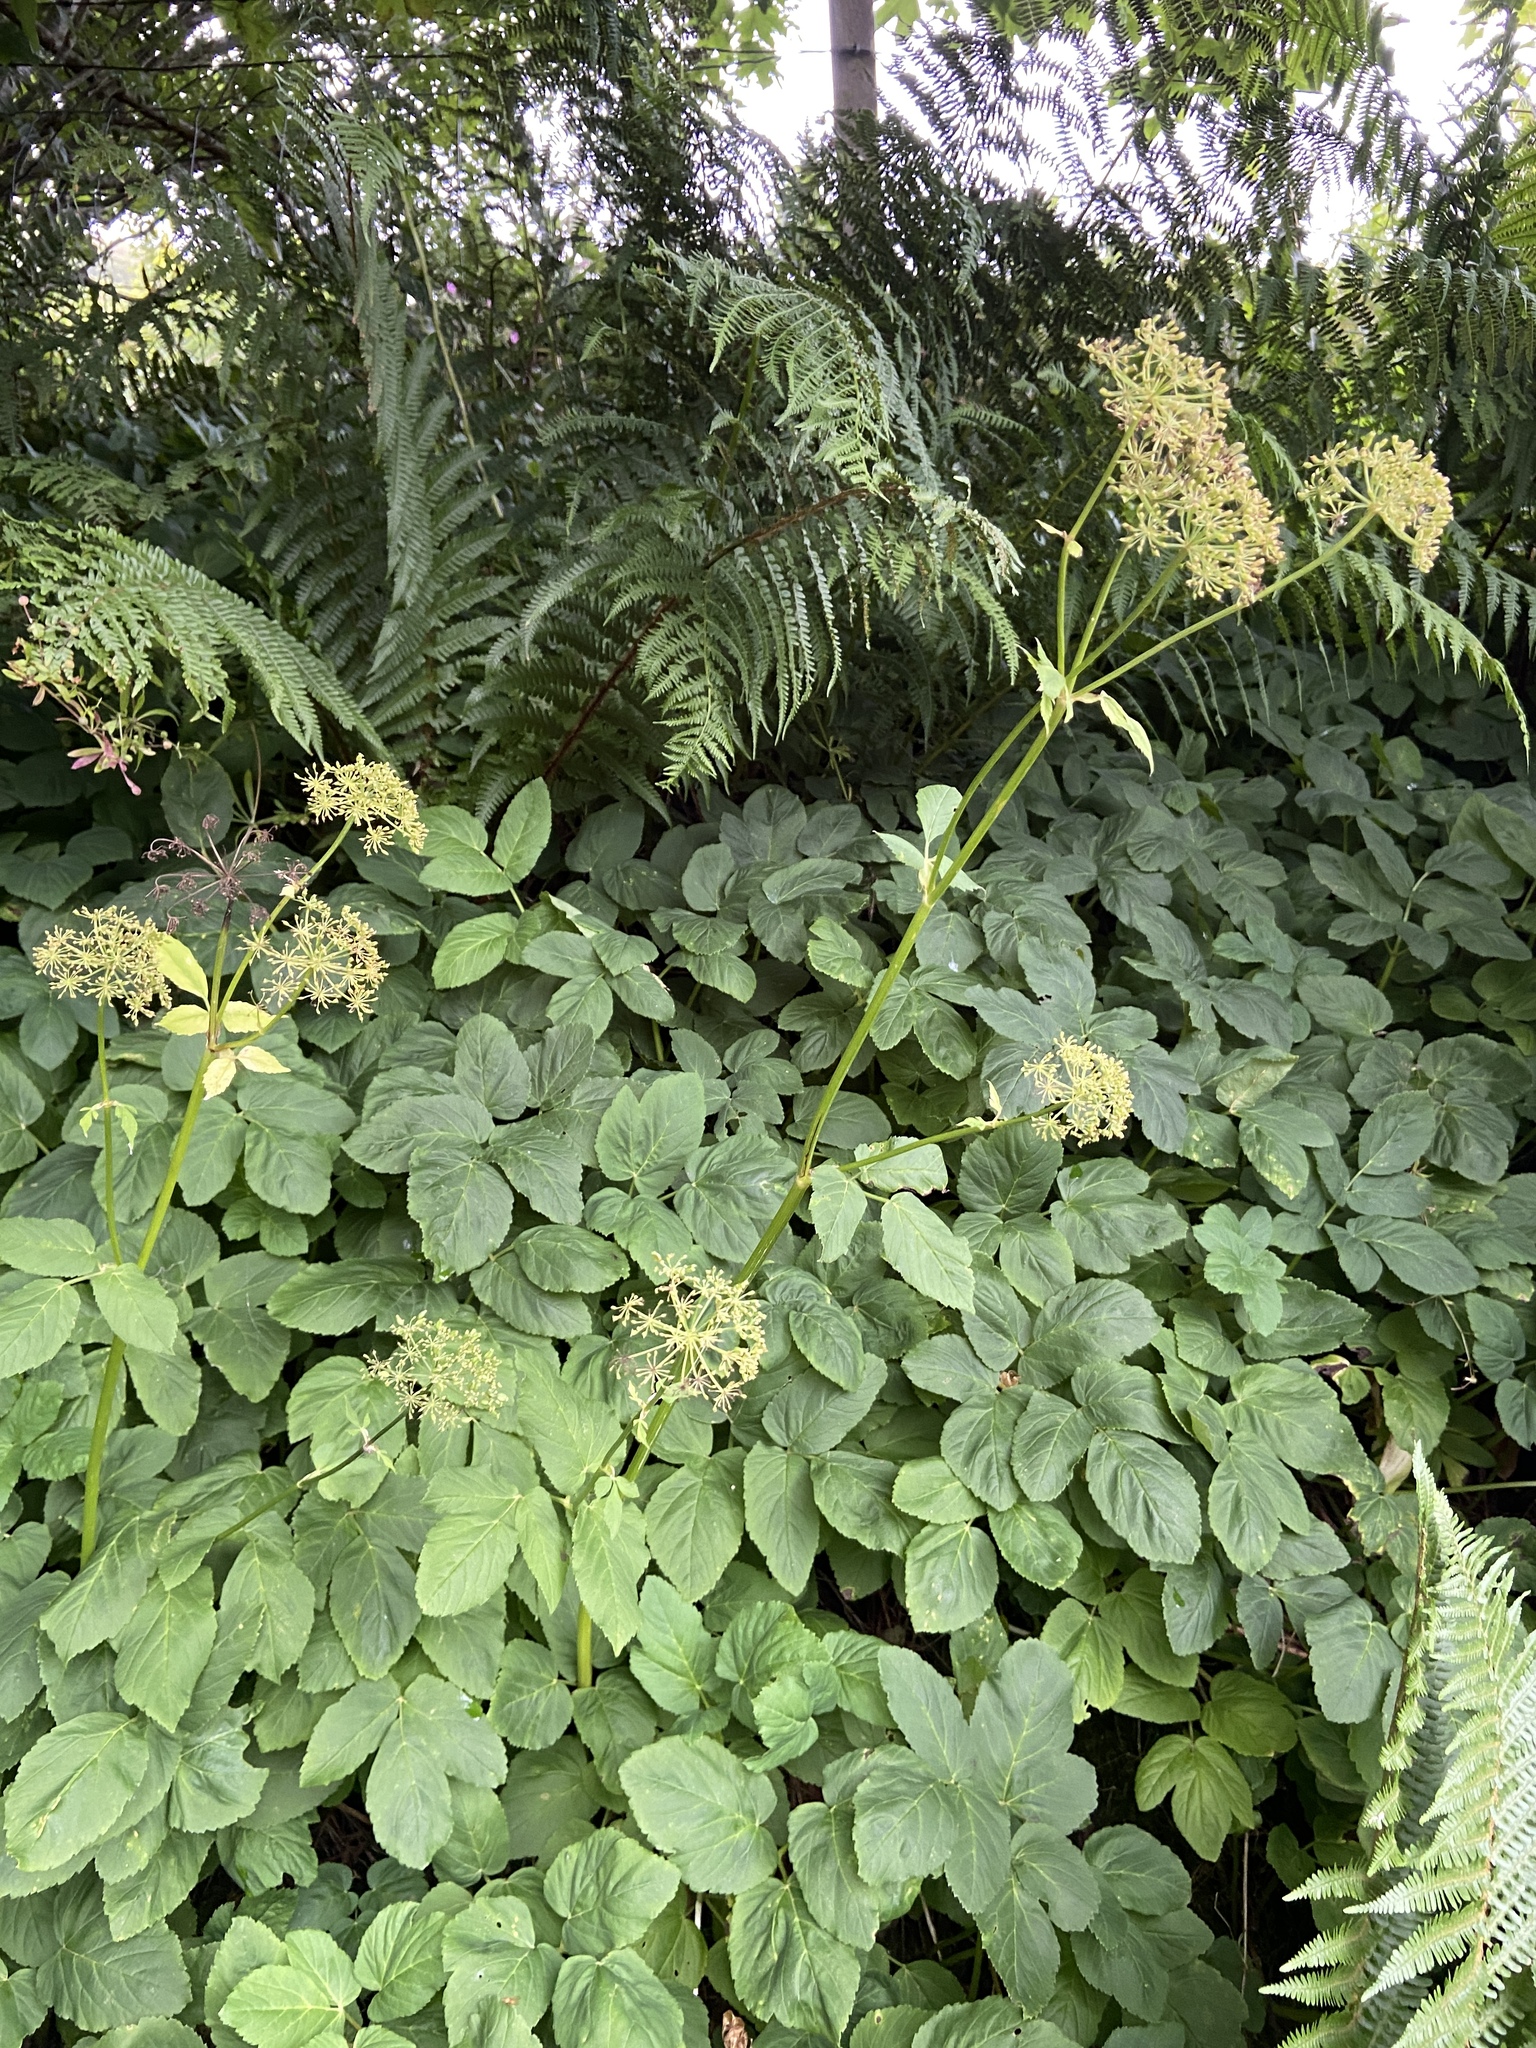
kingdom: Plantae
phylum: Tracheophyta
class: Magnoliopsida
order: Apiales
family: Apiaceae
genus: Aegopodium
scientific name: Aegopodium podagraria
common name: Ground-elder
